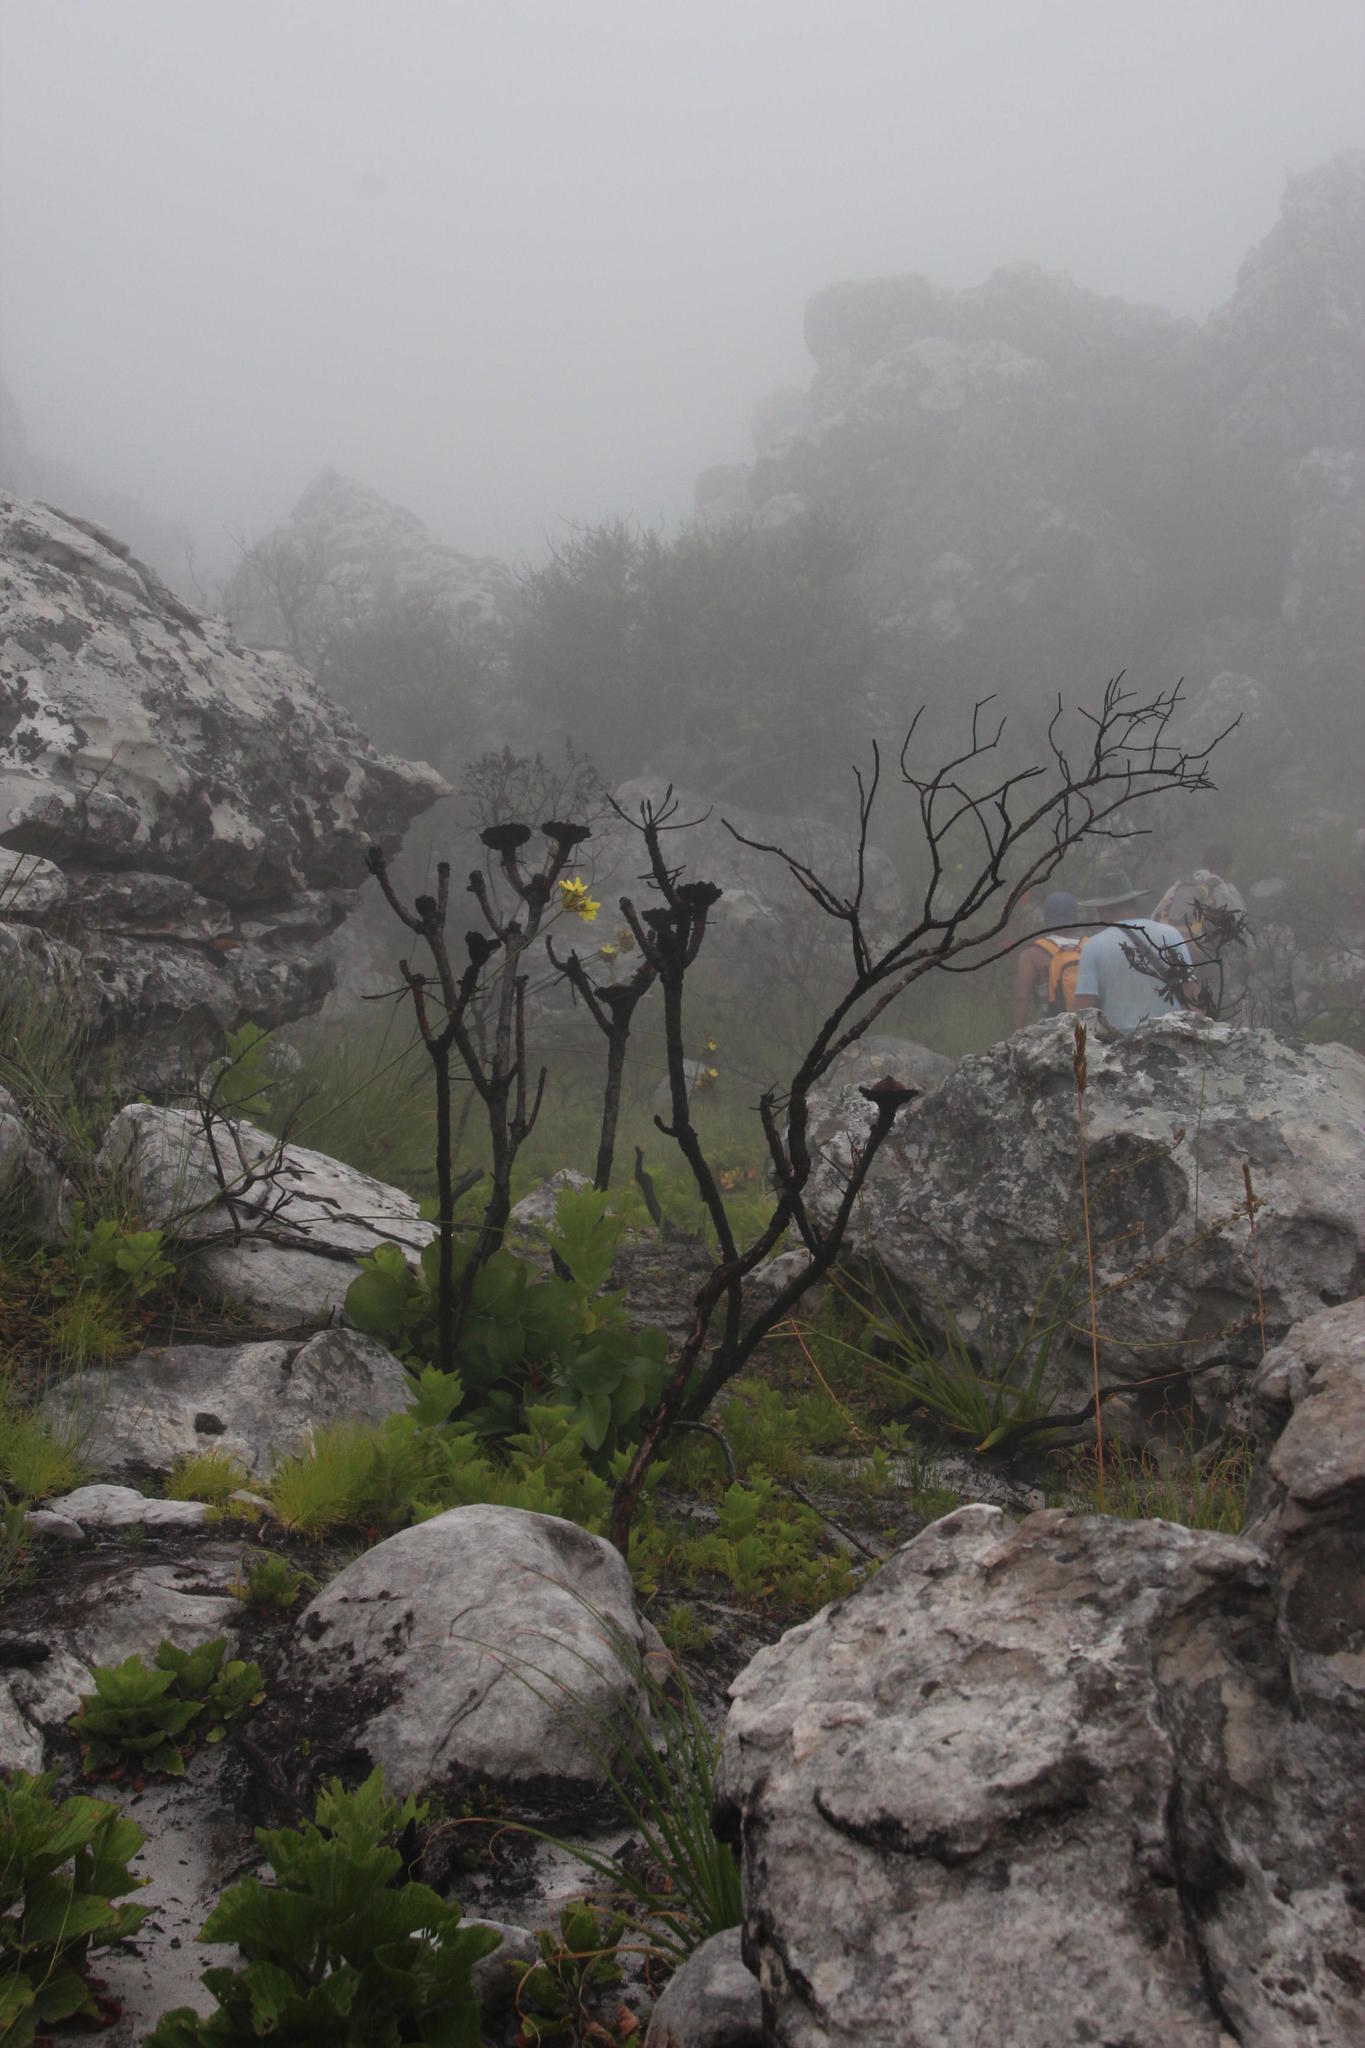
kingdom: Plantae
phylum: Tracheophyta
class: Magnoliopsida
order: Proteales
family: Proteaceae
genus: Protea
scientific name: Protea cynaroides
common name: King protea
